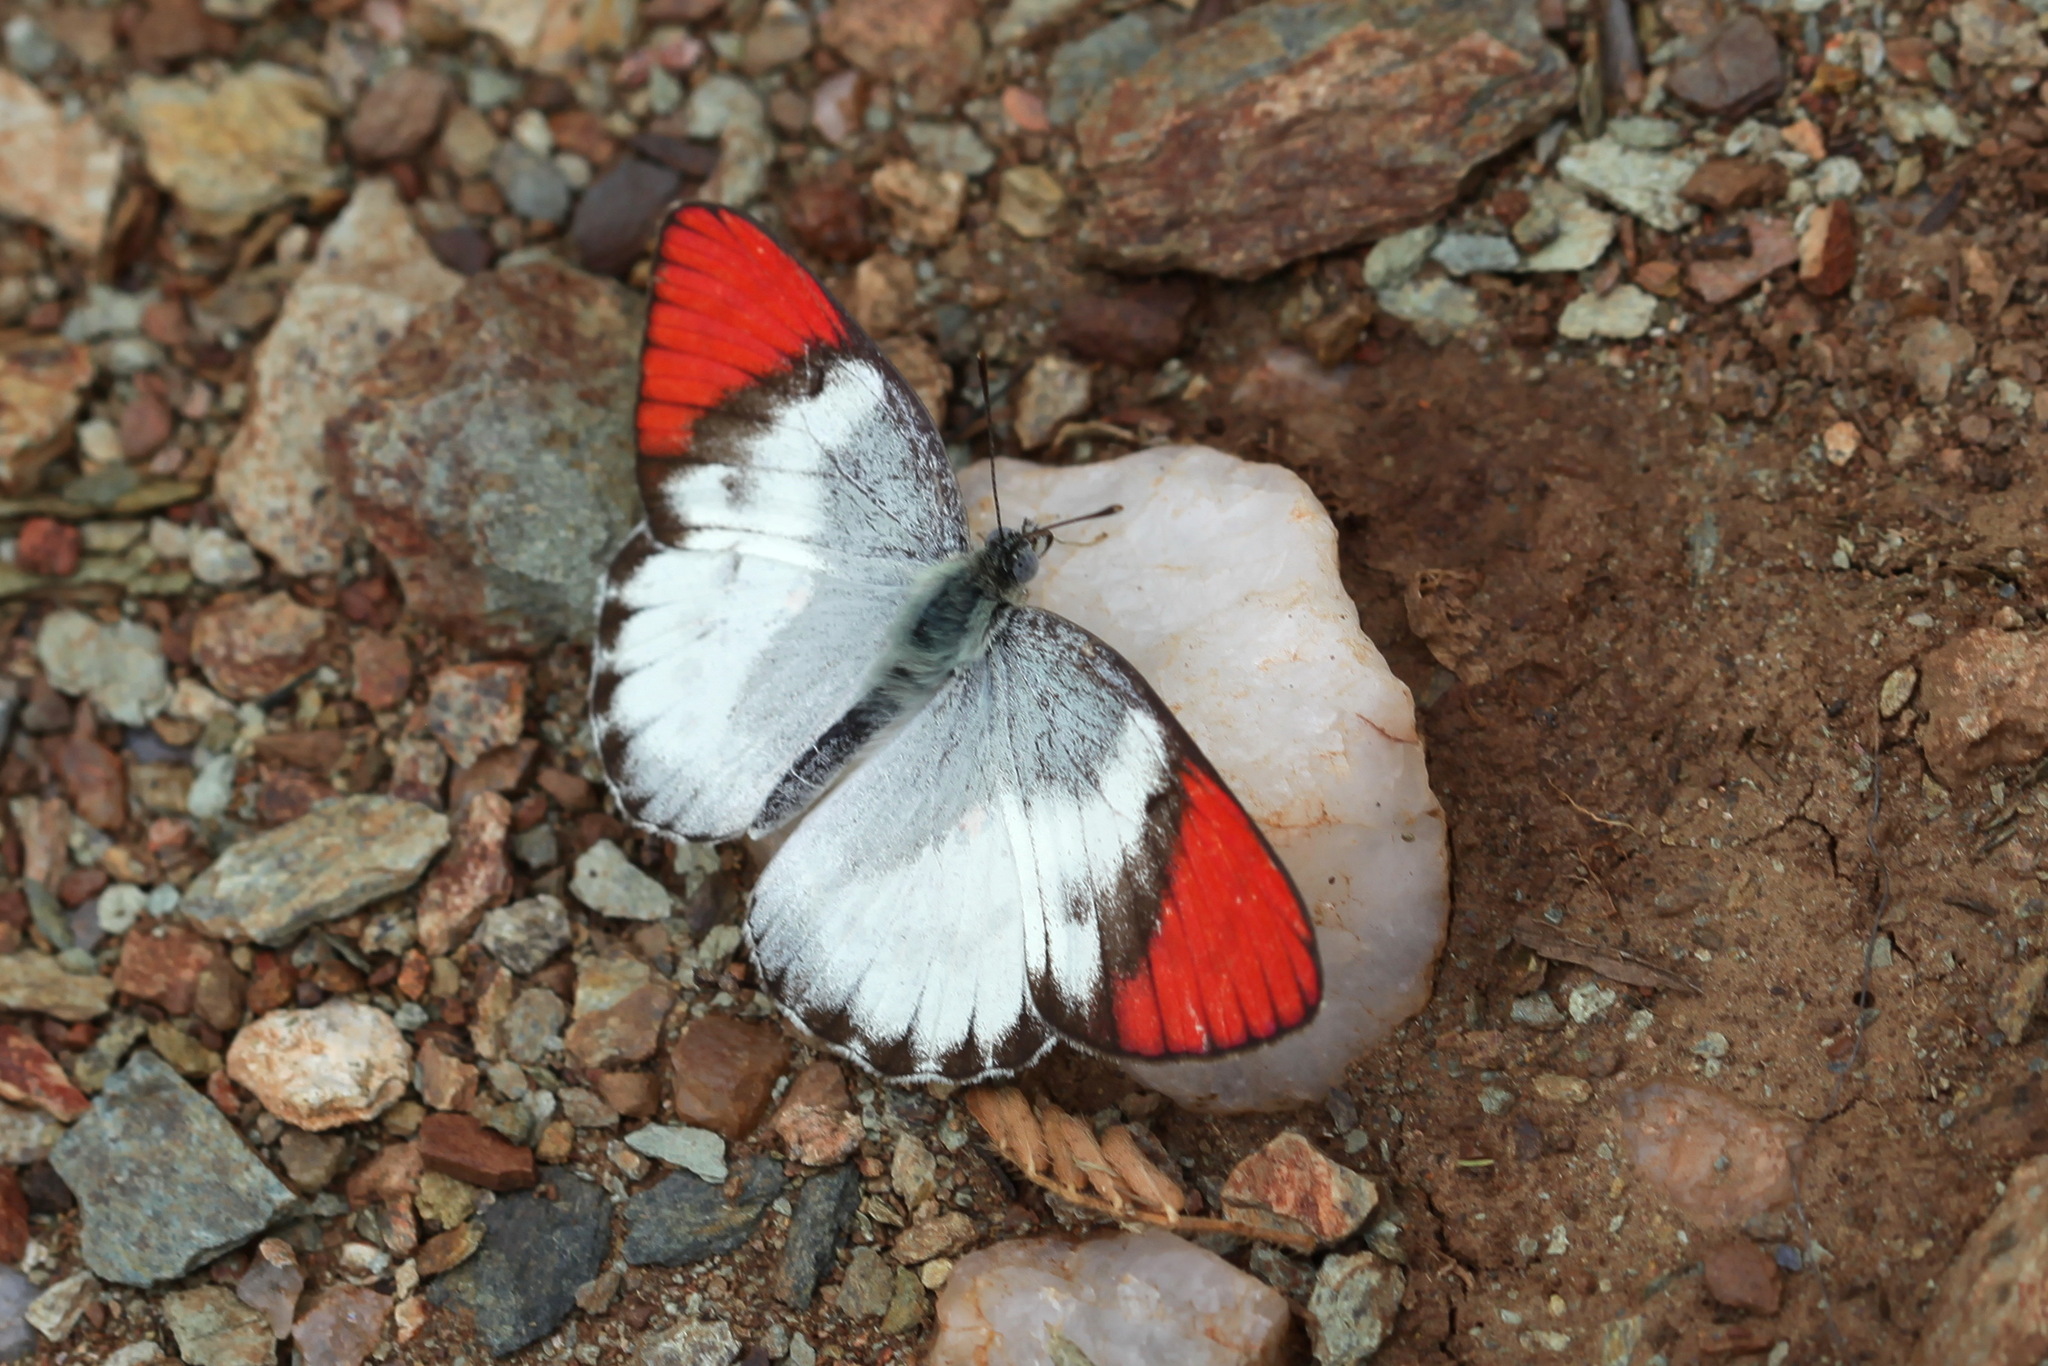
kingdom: Animalia
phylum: Arthropoda
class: Insecta
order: Lepidoptera
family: Pieridae
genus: Colotis
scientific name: Colotis annae
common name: Scarlet tip
